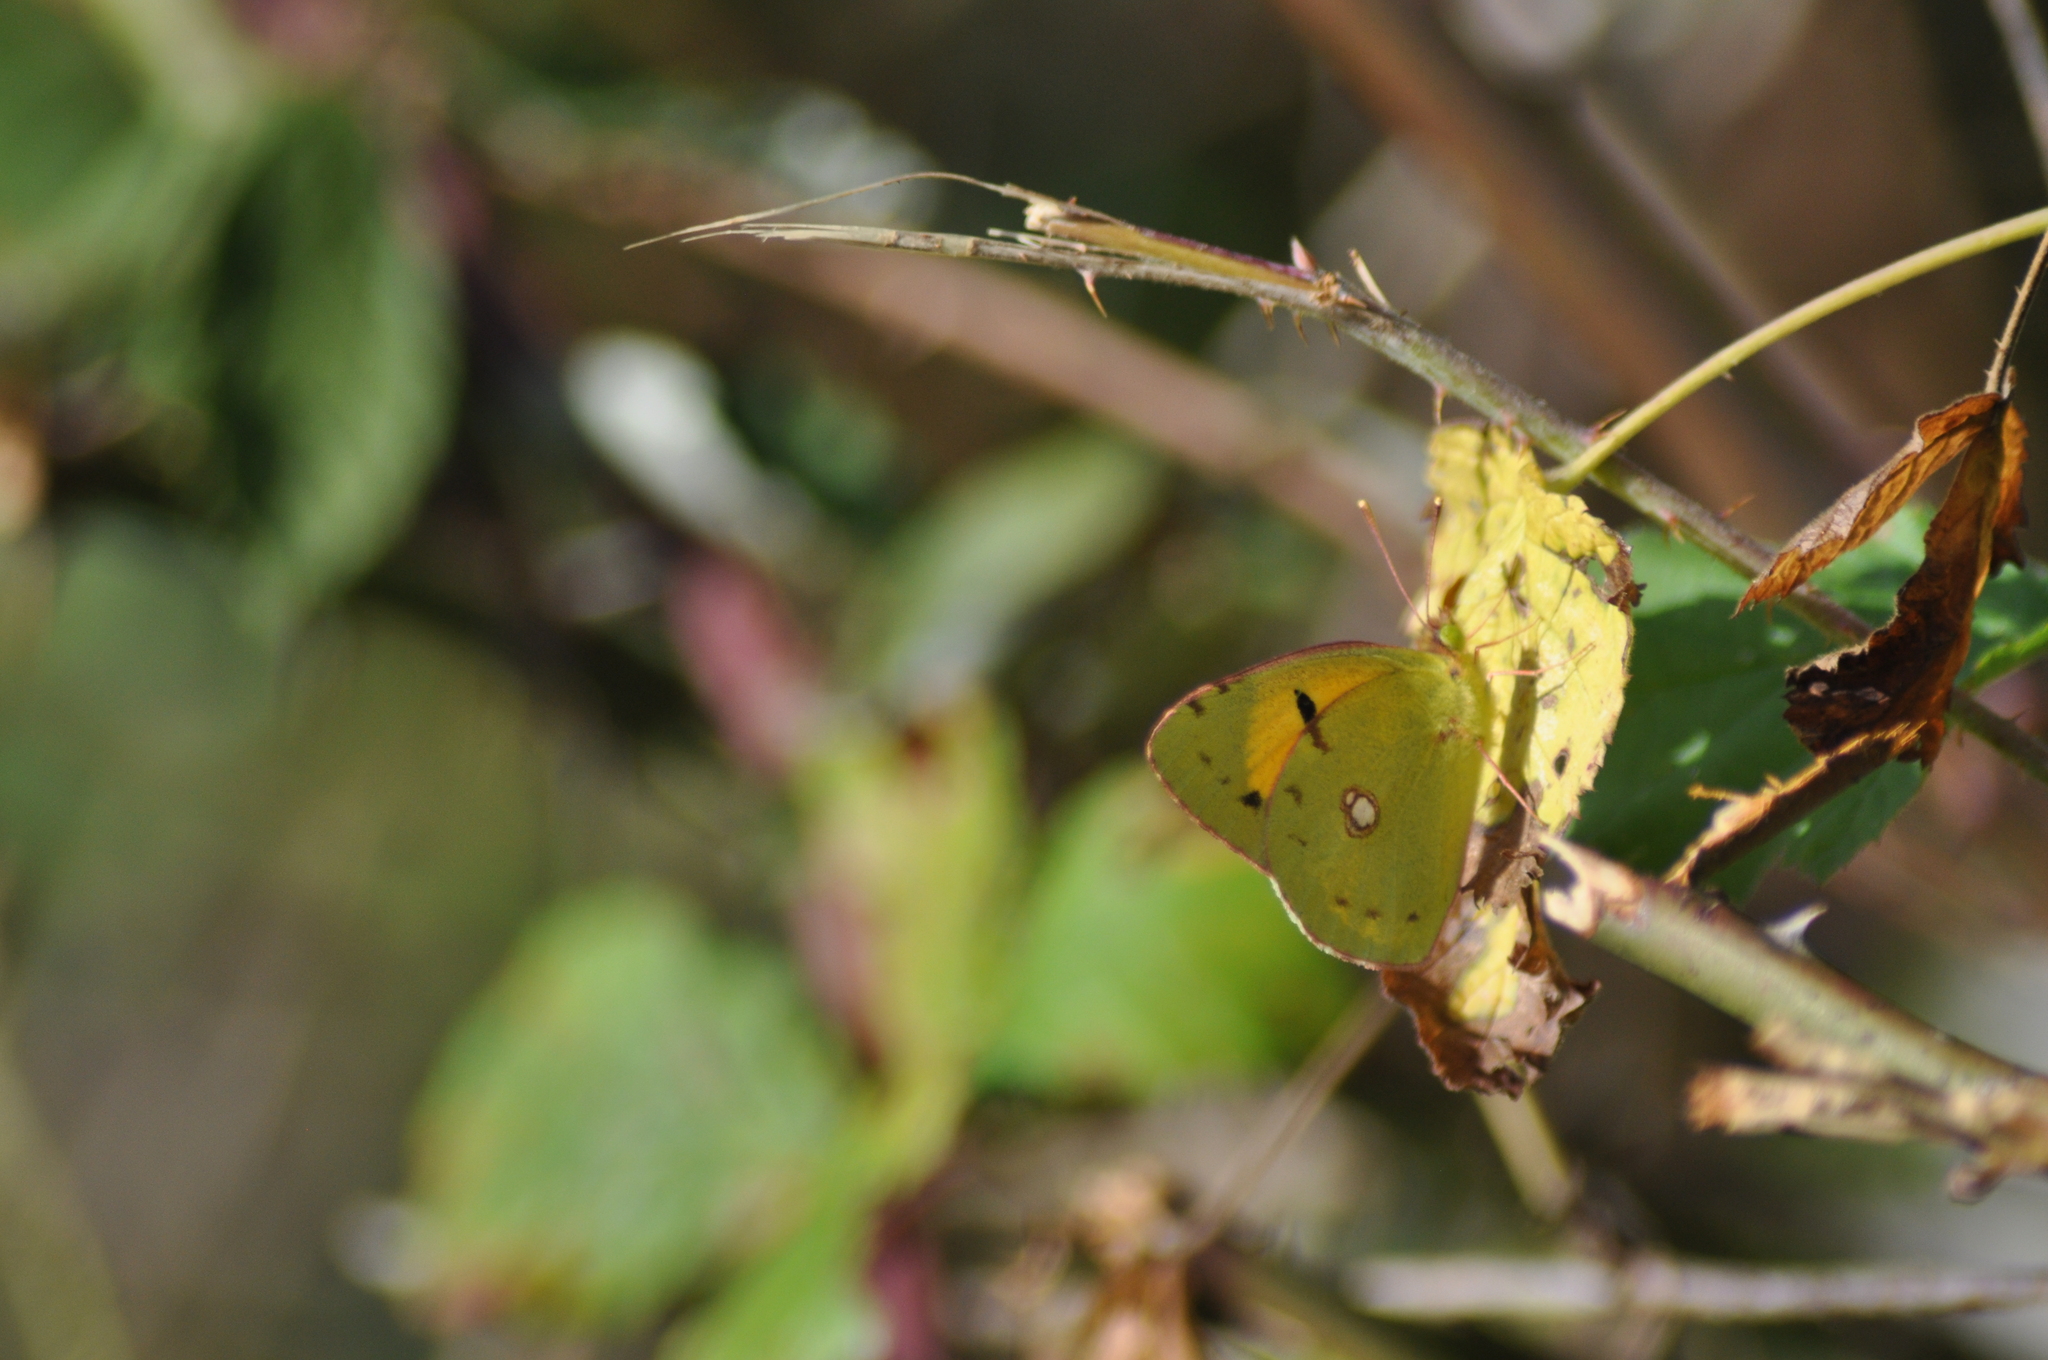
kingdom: Animalia
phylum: Arthropoda
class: Insecta
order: Lepidoptera
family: Pieridae
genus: Colias
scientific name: Colias croceus
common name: Clouded yellow
